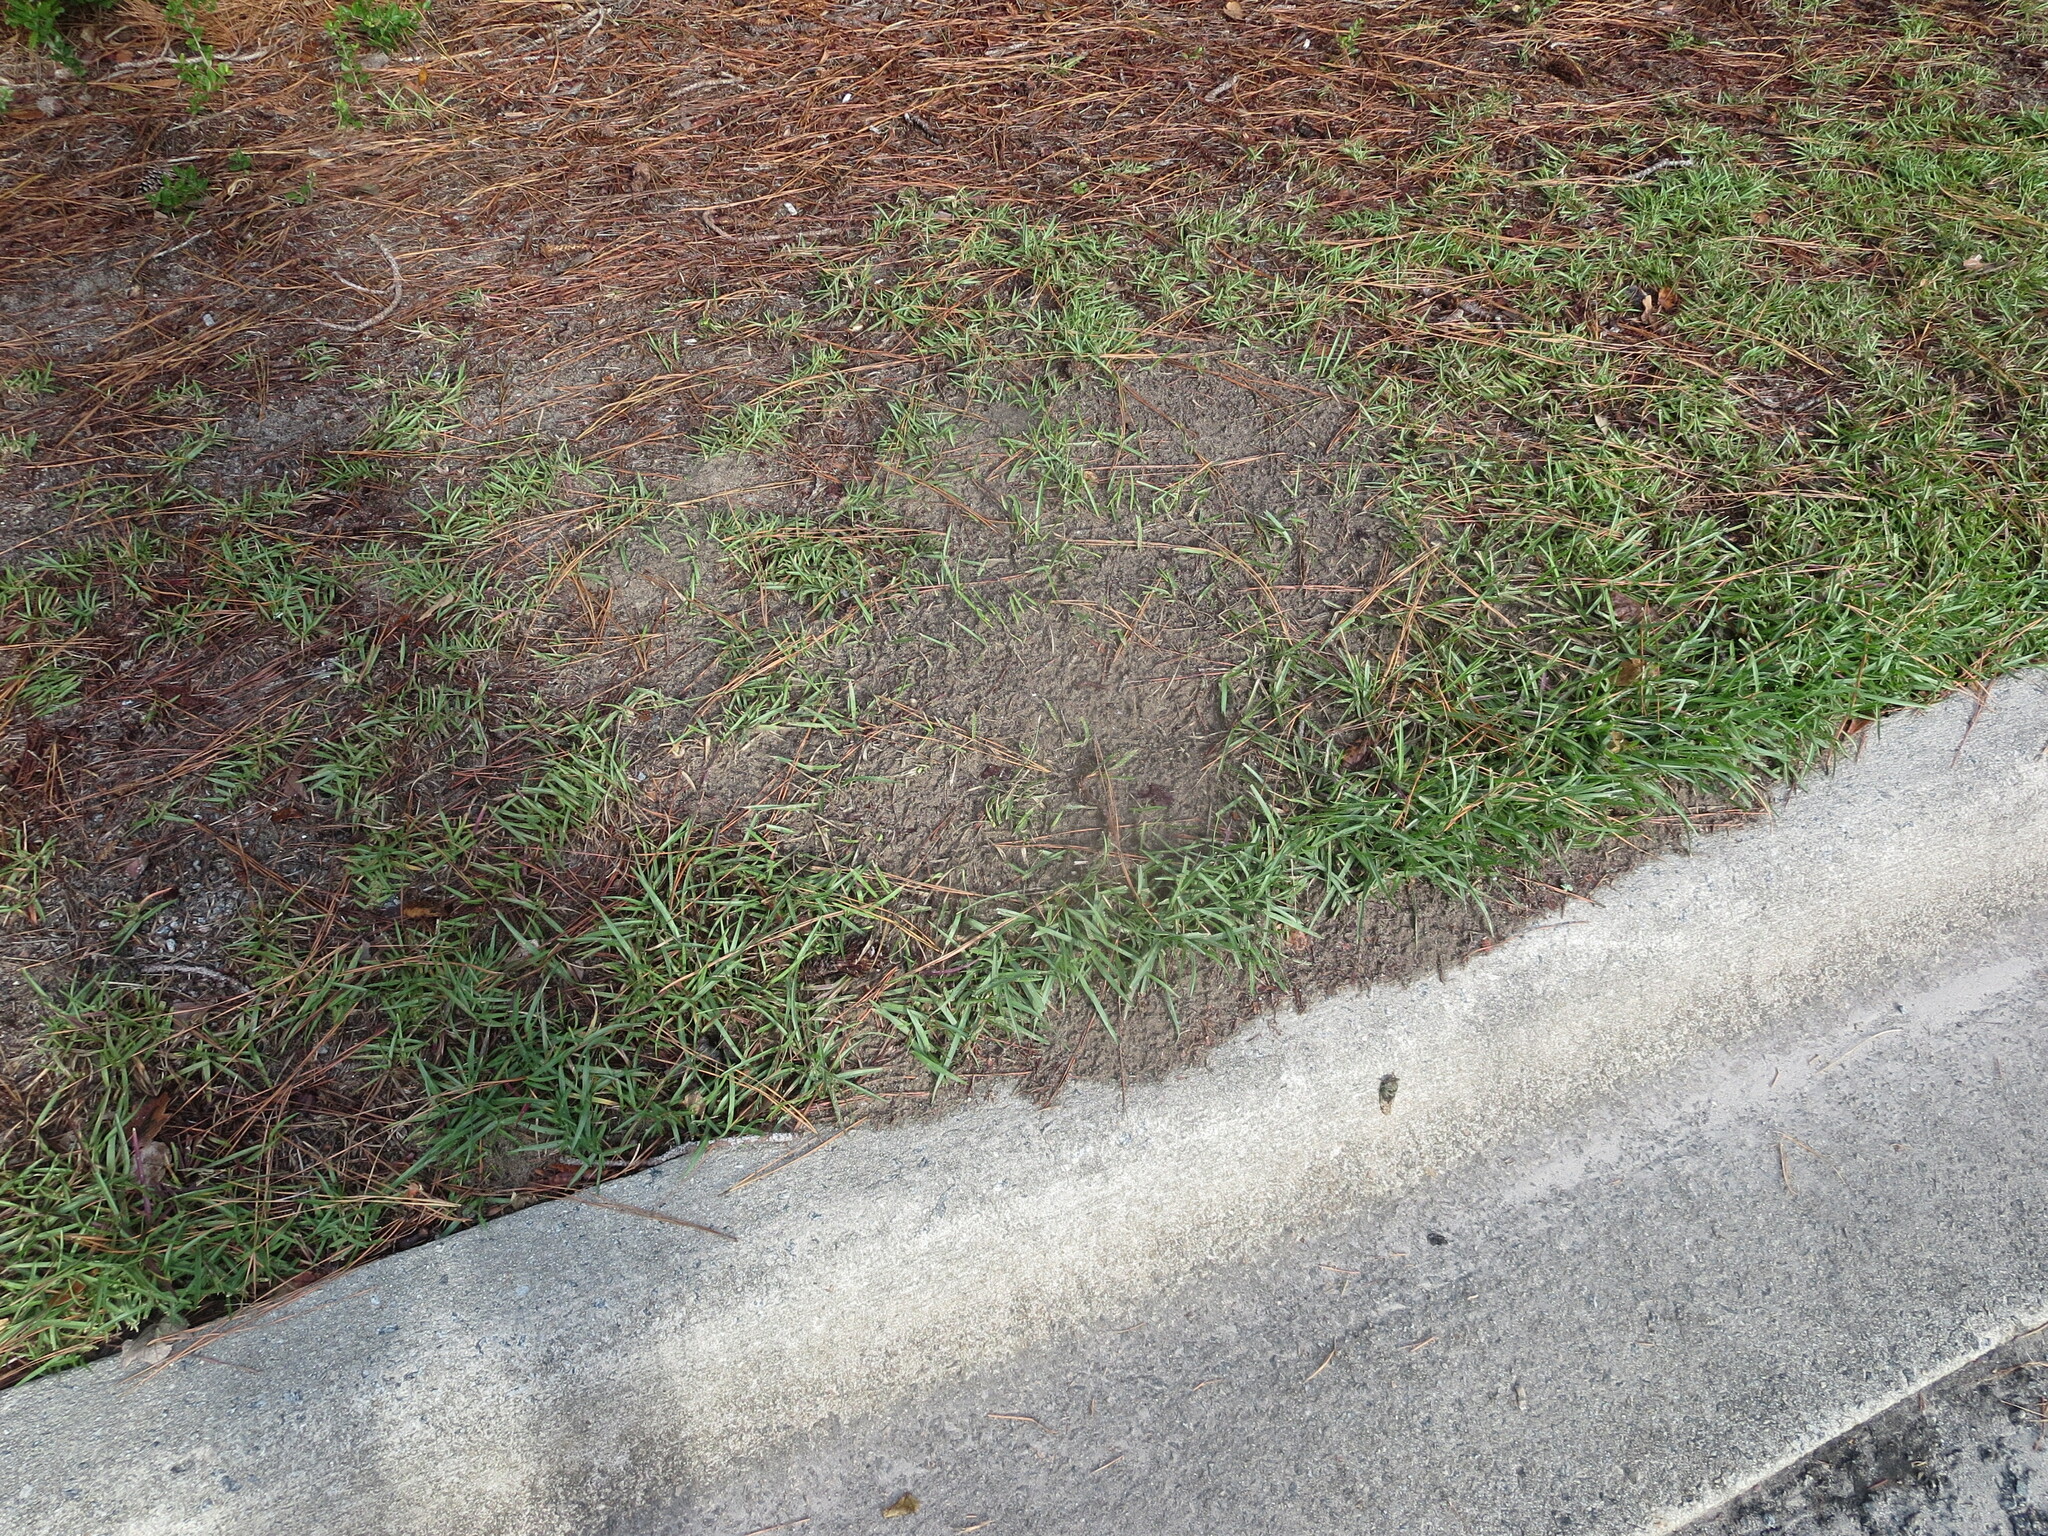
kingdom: Animalia
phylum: Arthropoda
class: Insecta
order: Hymenoptera
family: Formicidae
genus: Solenopsis
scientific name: Solenopsis invicta
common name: Red imported fire ant
